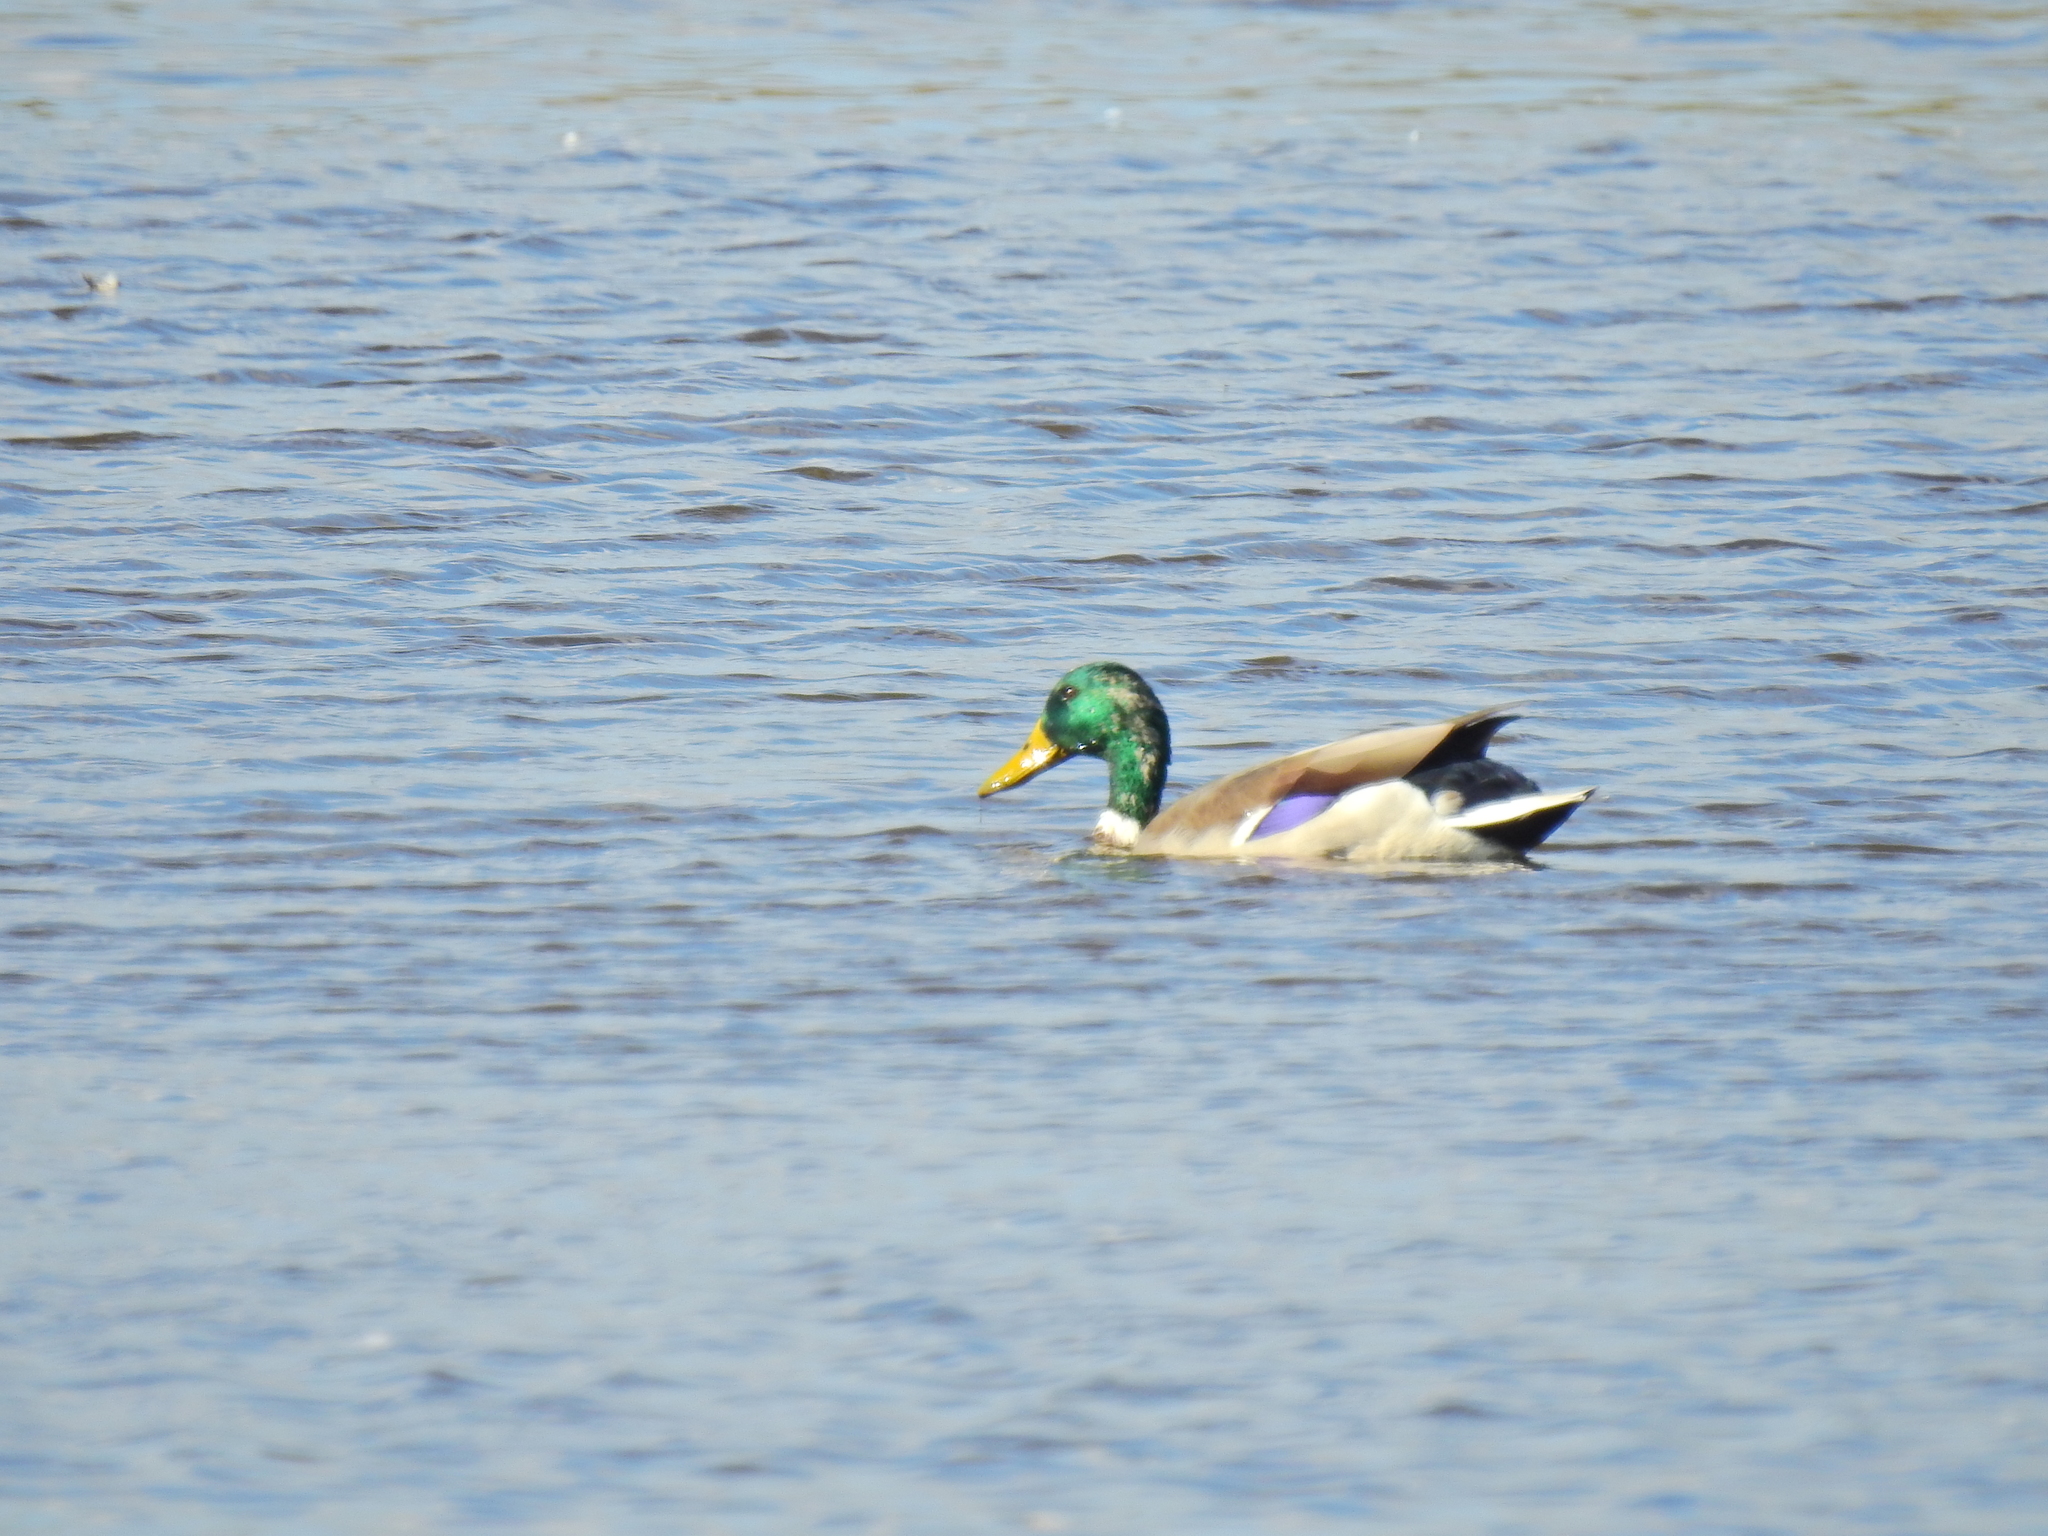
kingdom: Animalia
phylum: Chordata
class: Aves
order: Anseriformes
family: Anatidae
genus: Anas
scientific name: Anas platyrhynchos
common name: Mallard
